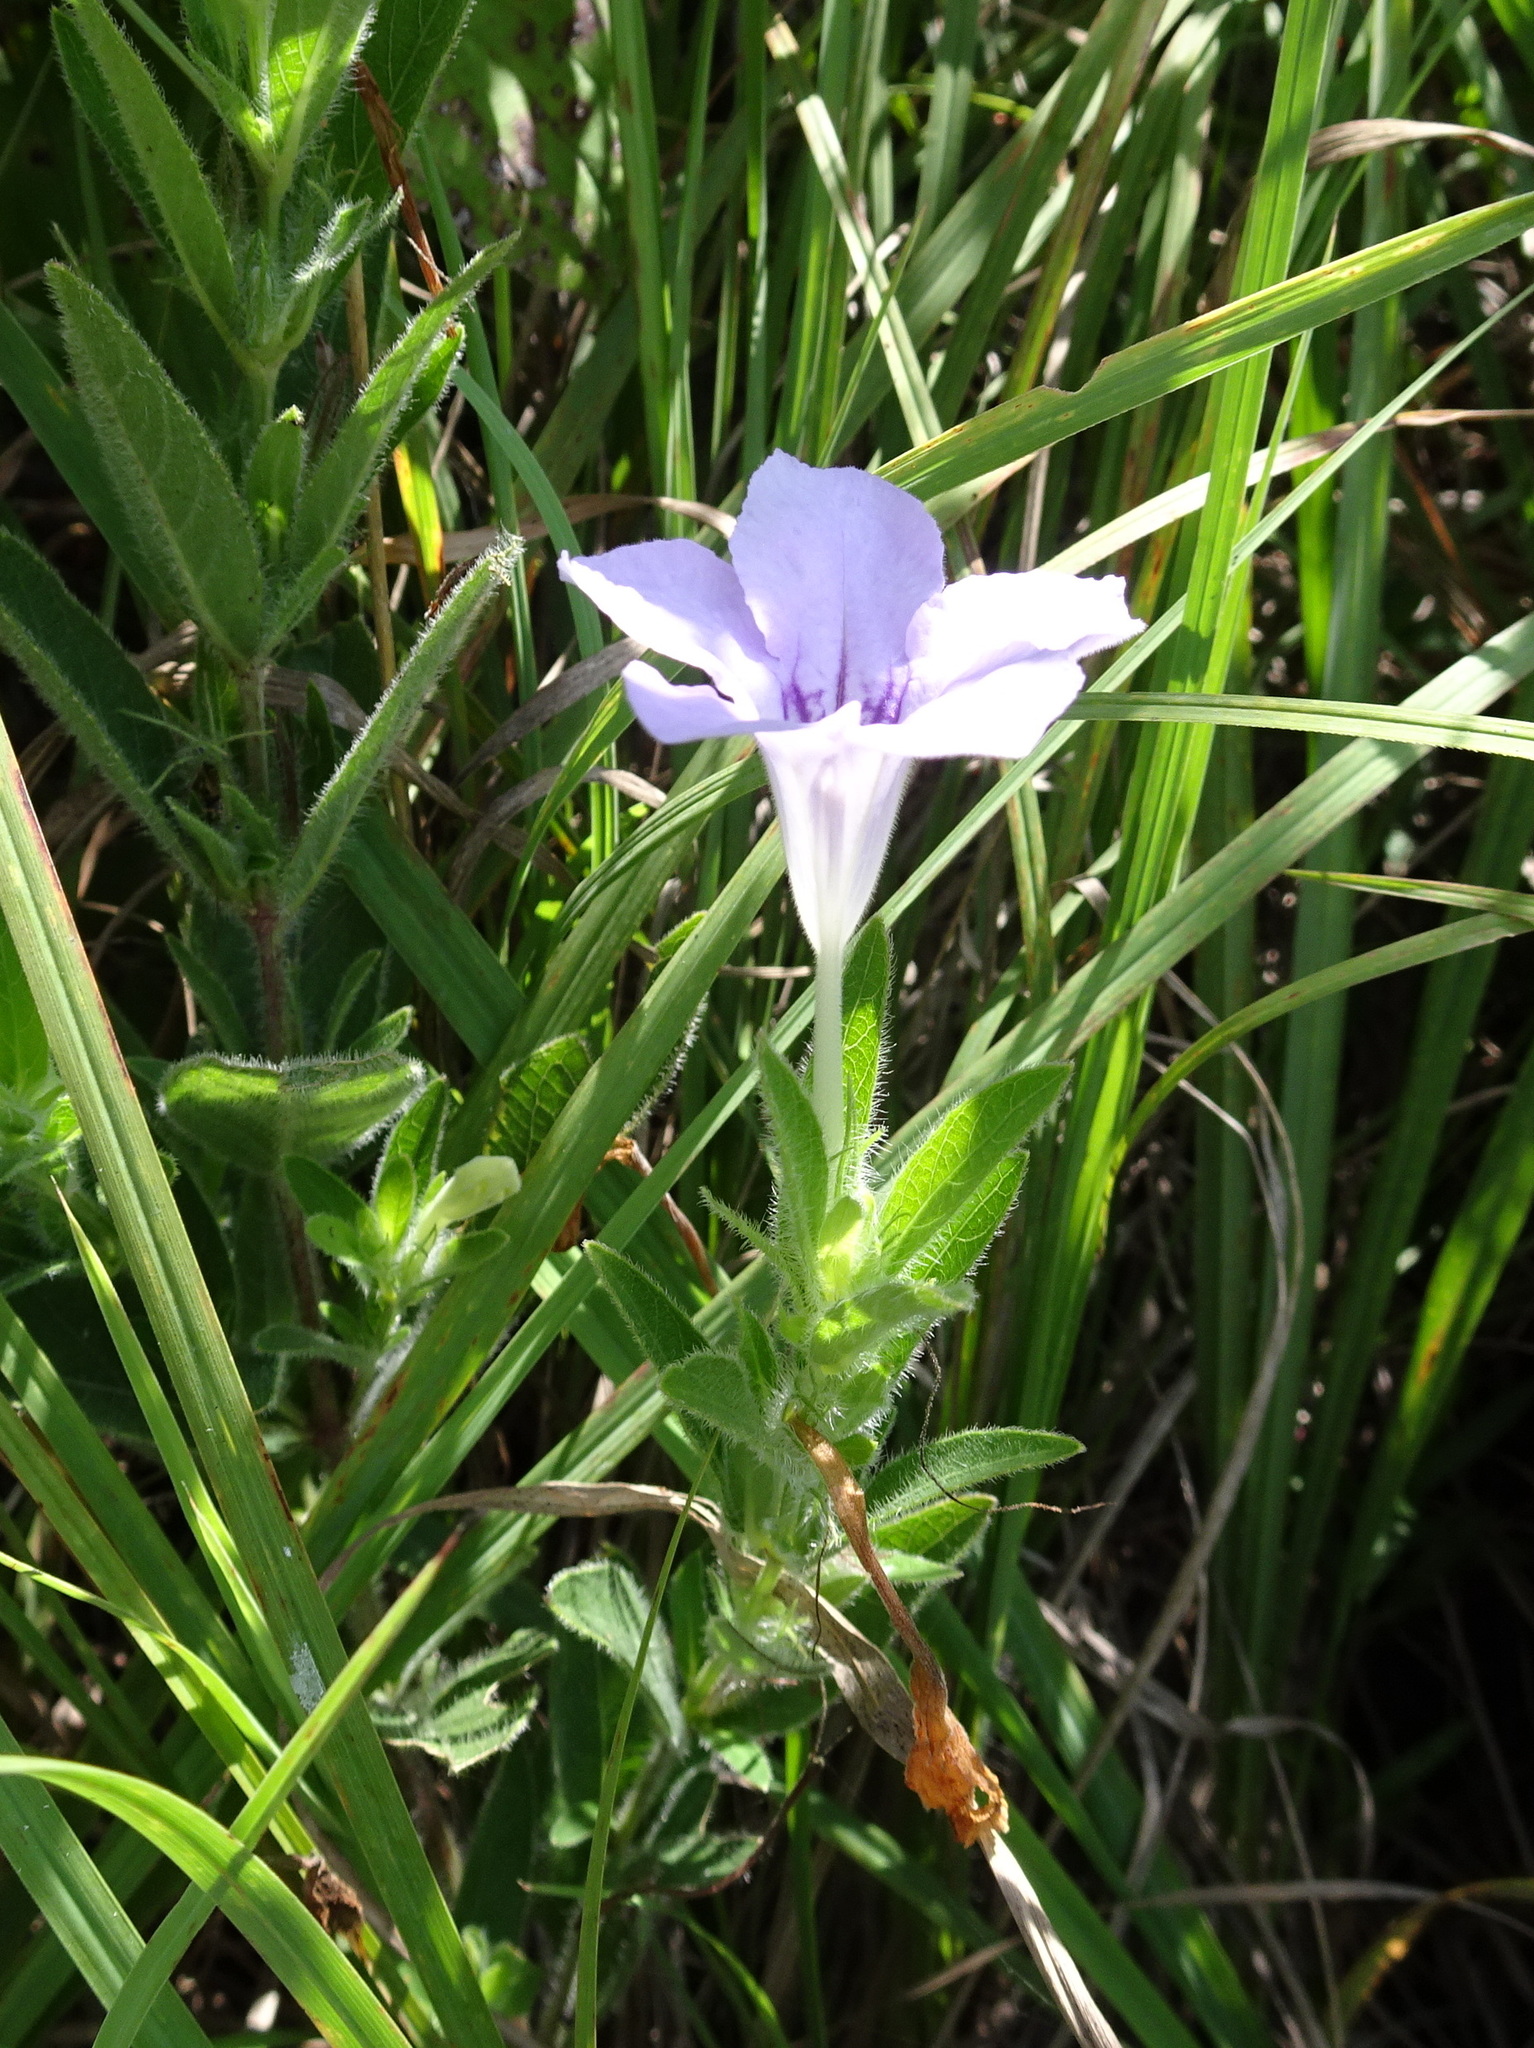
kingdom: Plantae
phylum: Tracheophyta
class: Magnoliopsida
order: Lamiales
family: Acanthaceae
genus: Ruellia
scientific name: Ruellia humilis
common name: Fringe-leaf ruellia
